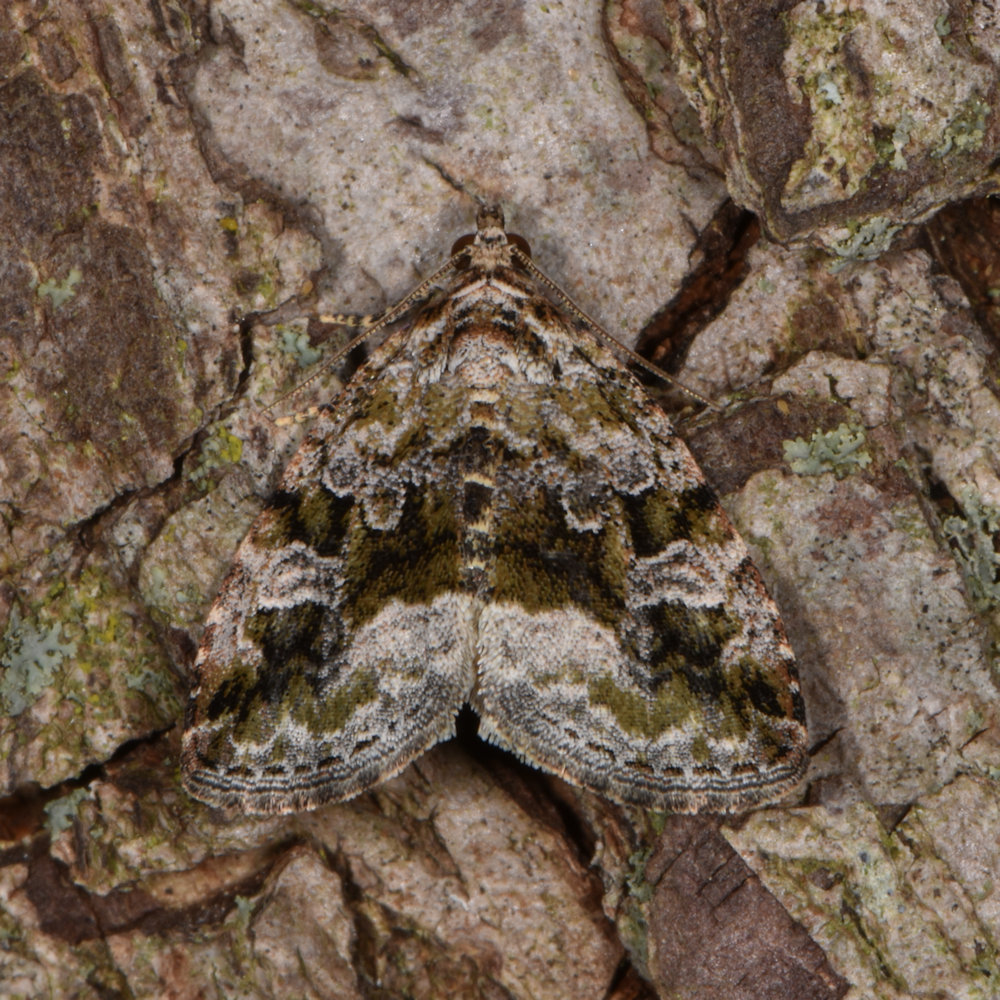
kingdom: Animalia
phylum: Arthropoda
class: Insecta
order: Lepidoptera
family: Noctuidae
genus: Protodeltote
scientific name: Protodeltote muscosula
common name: Large mossy glyph
